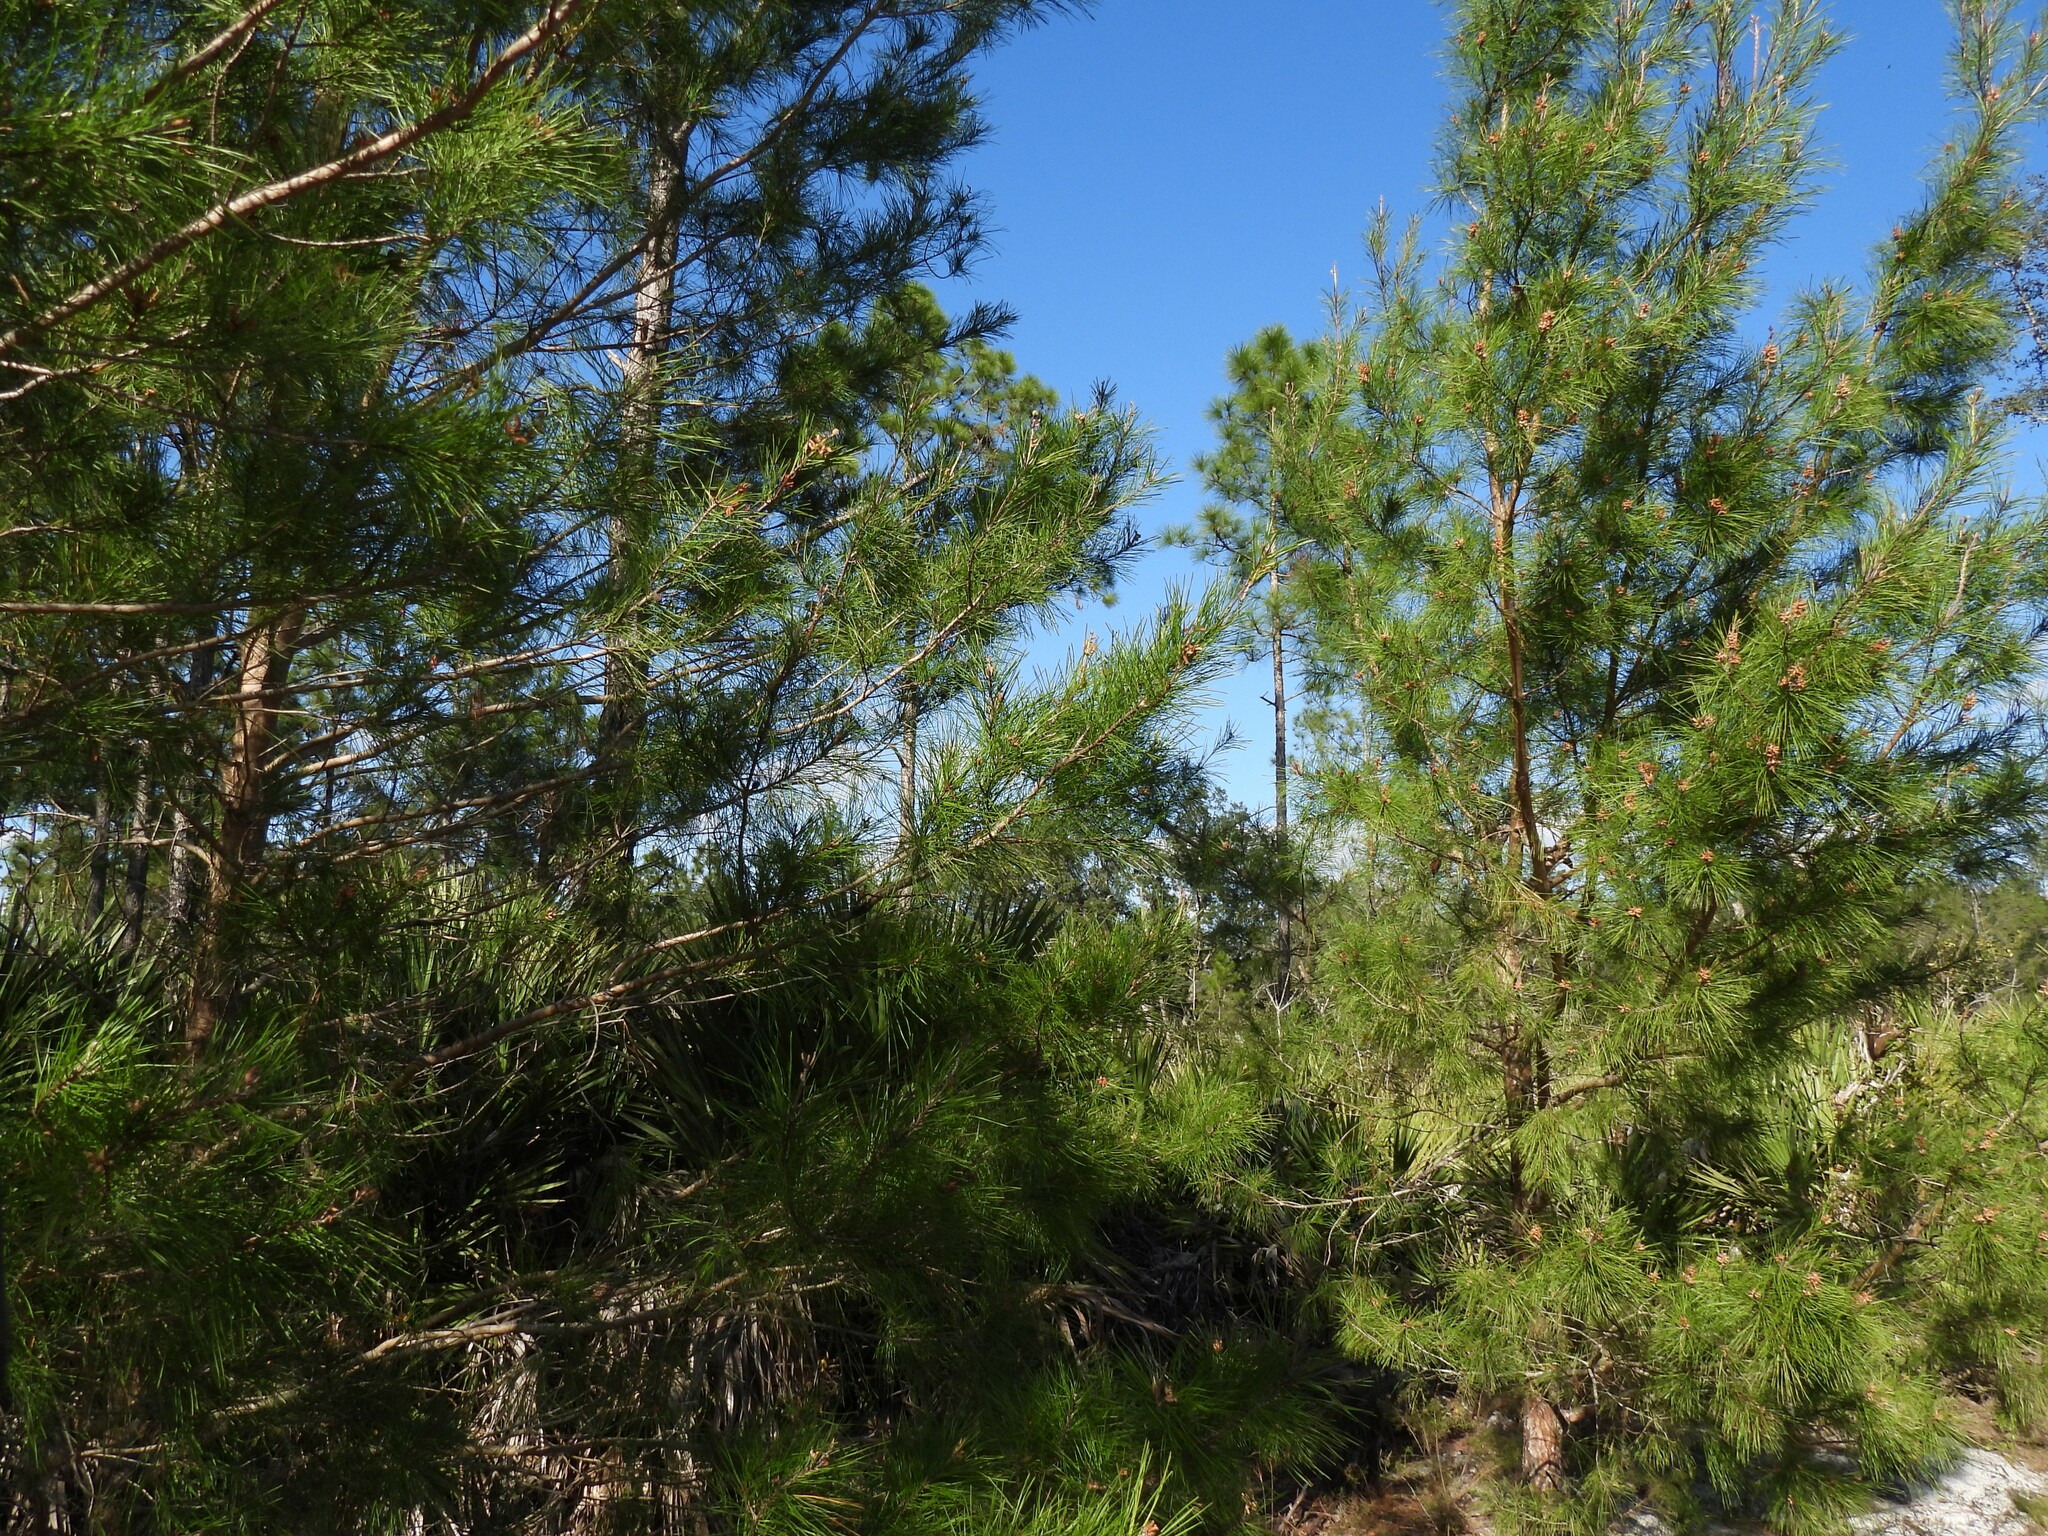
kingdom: Plantae
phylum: Tracheophyta
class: Pinopsida
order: Pinales
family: Pinaceae
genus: Pinus
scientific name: Pinus clausa
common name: Sand pine
